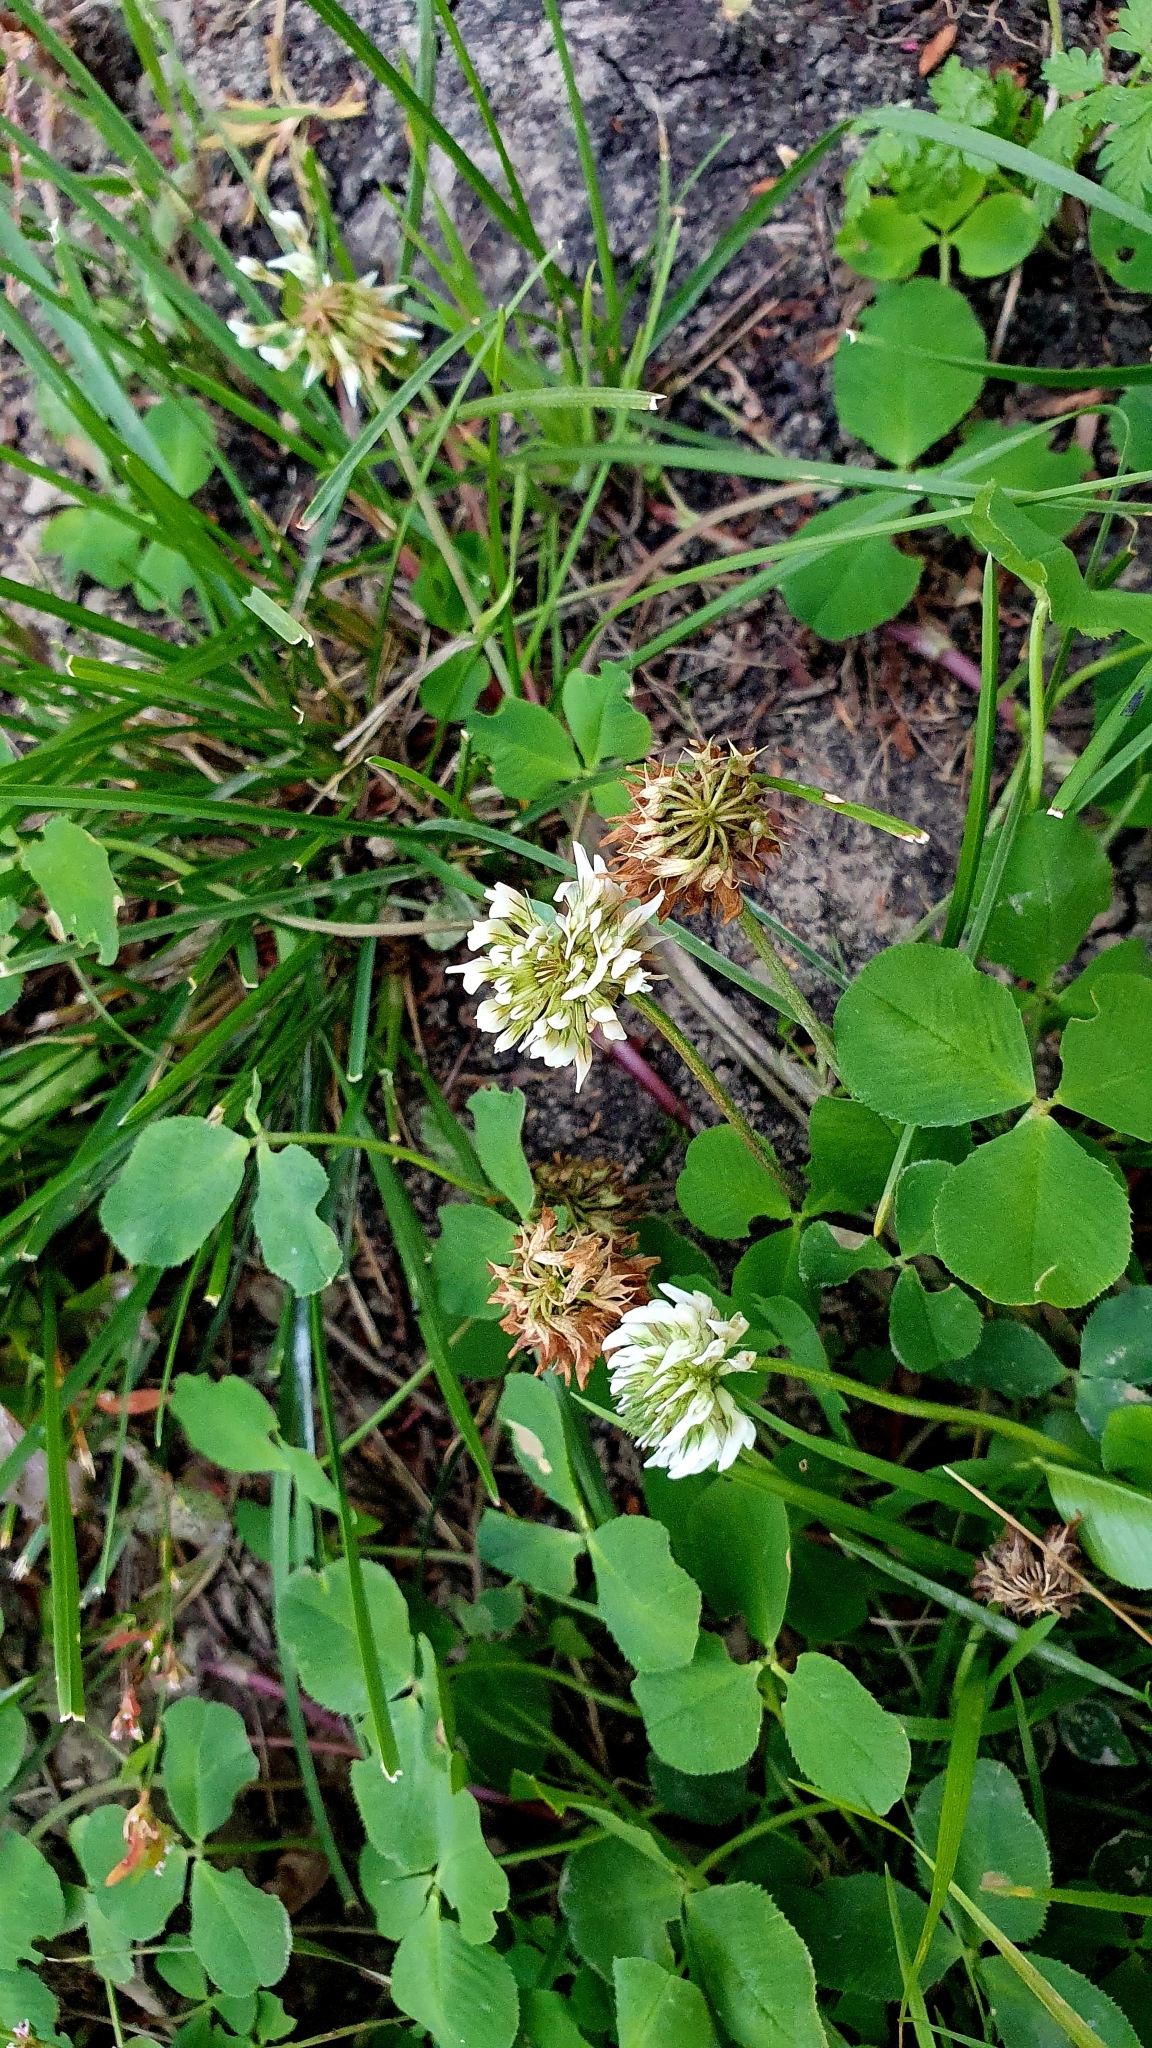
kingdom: Plantae
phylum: Tracheophyta
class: Magnoliopsida
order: Fabales
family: Fabaceae
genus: Trifolium
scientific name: Trifolium repens
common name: White clover
